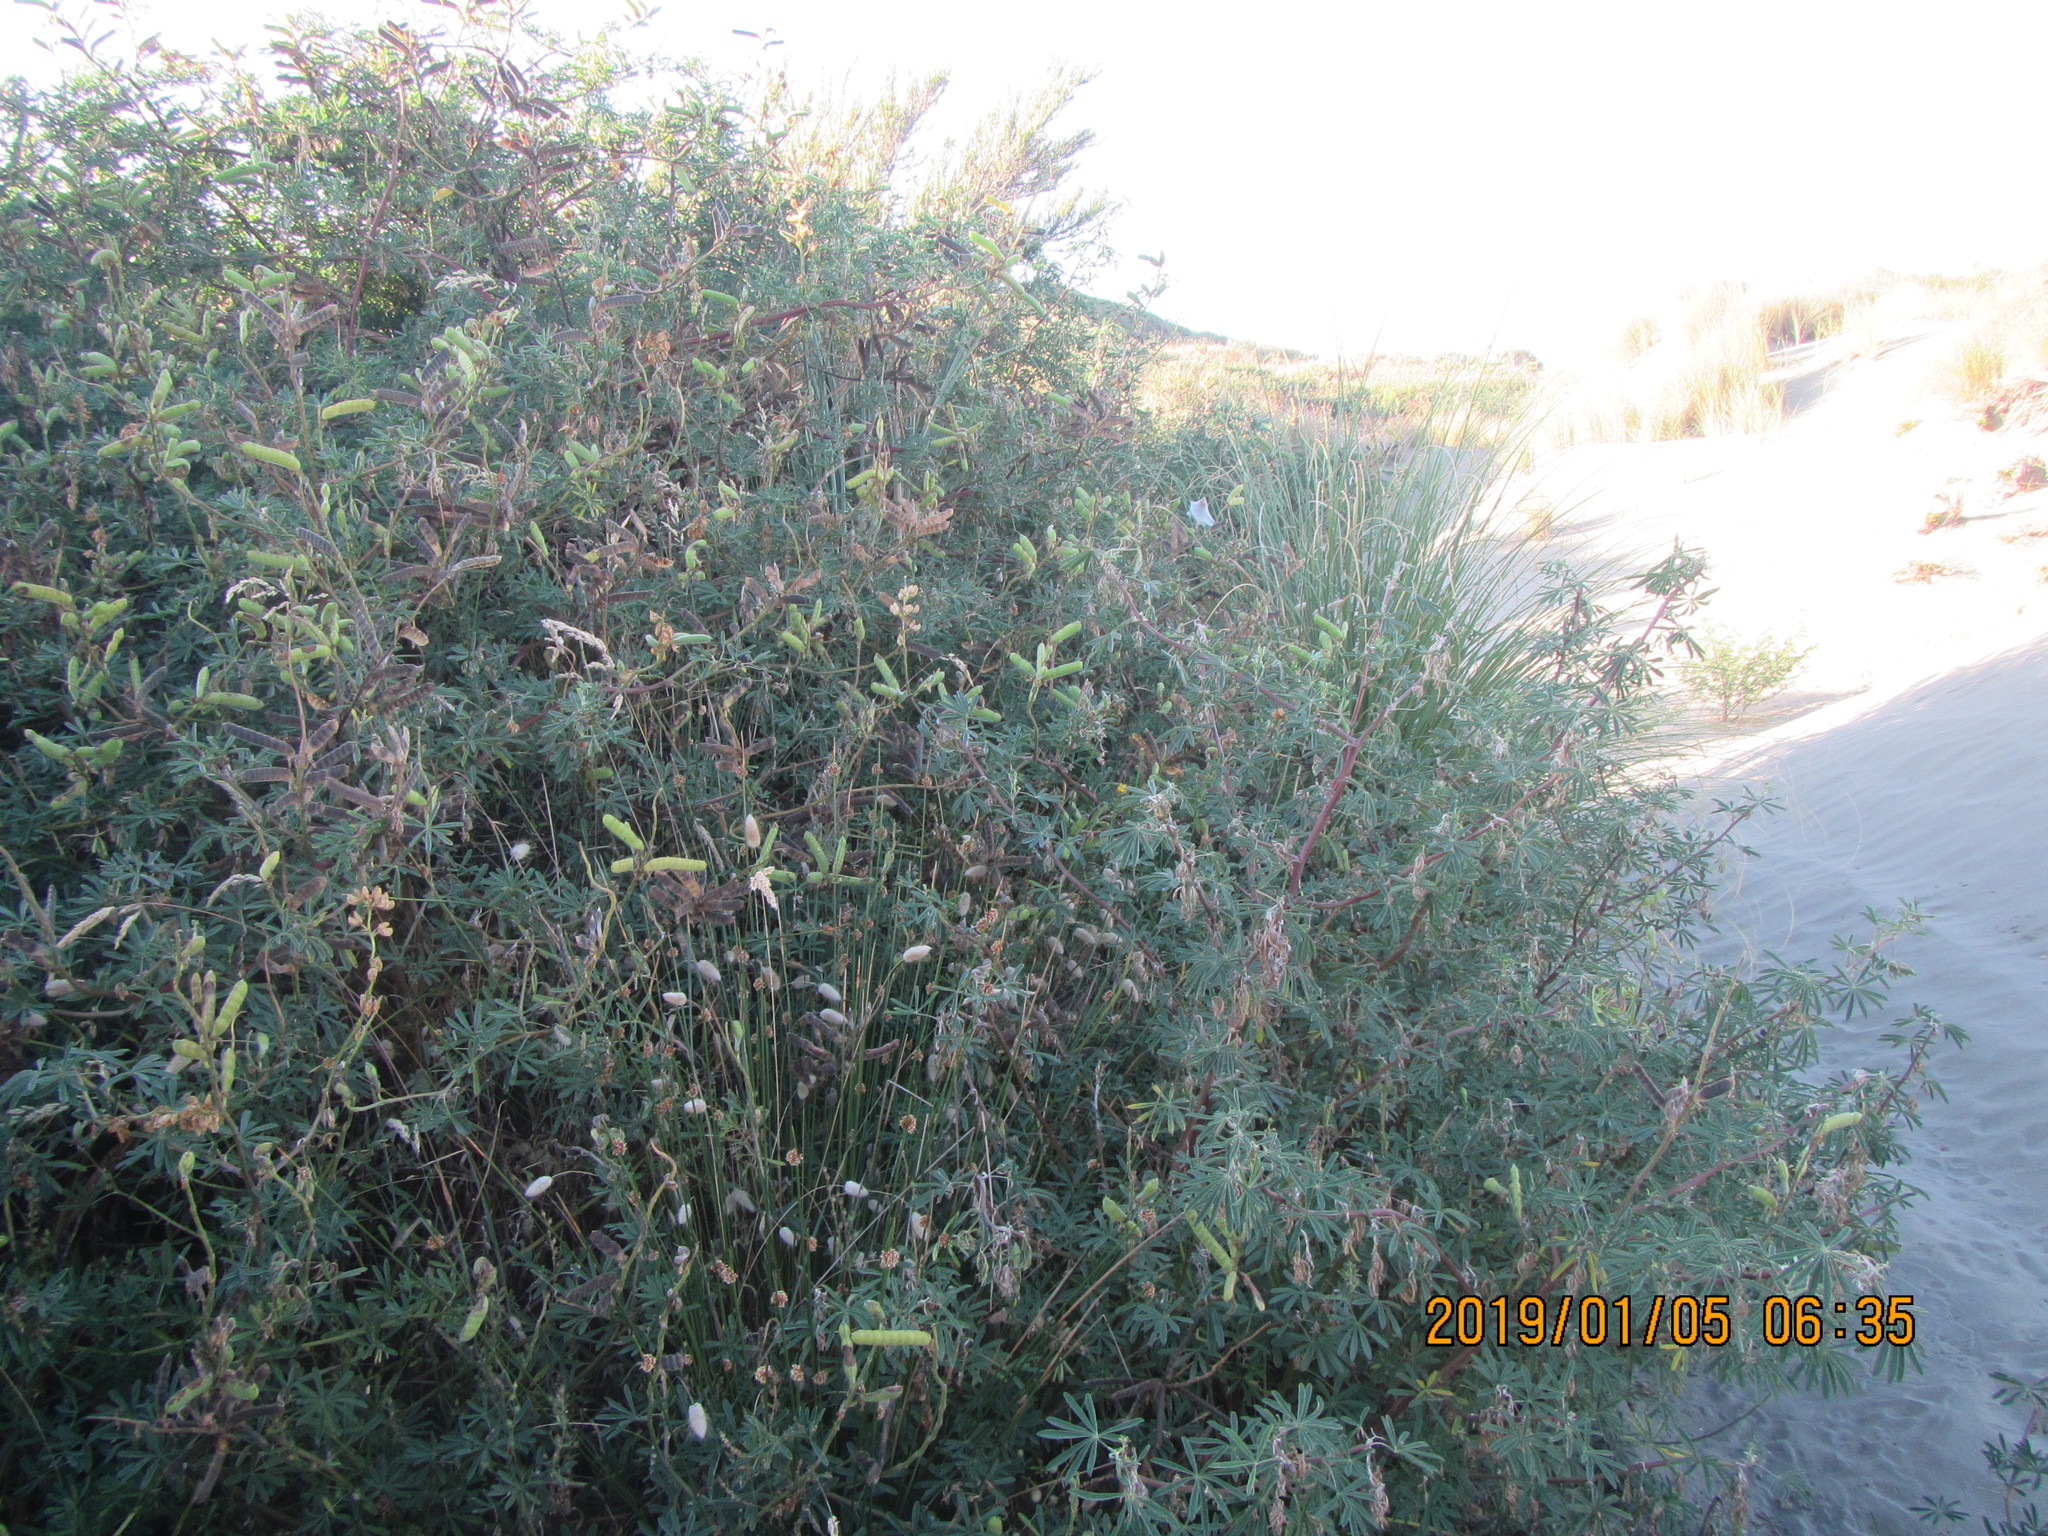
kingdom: Plantae
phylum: Tracheophyta
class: Magnoliopsida
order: Fabales
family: Fabaceae
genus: Lupinus
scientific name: Lupinus arboreus
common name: Yellow bush lupine
